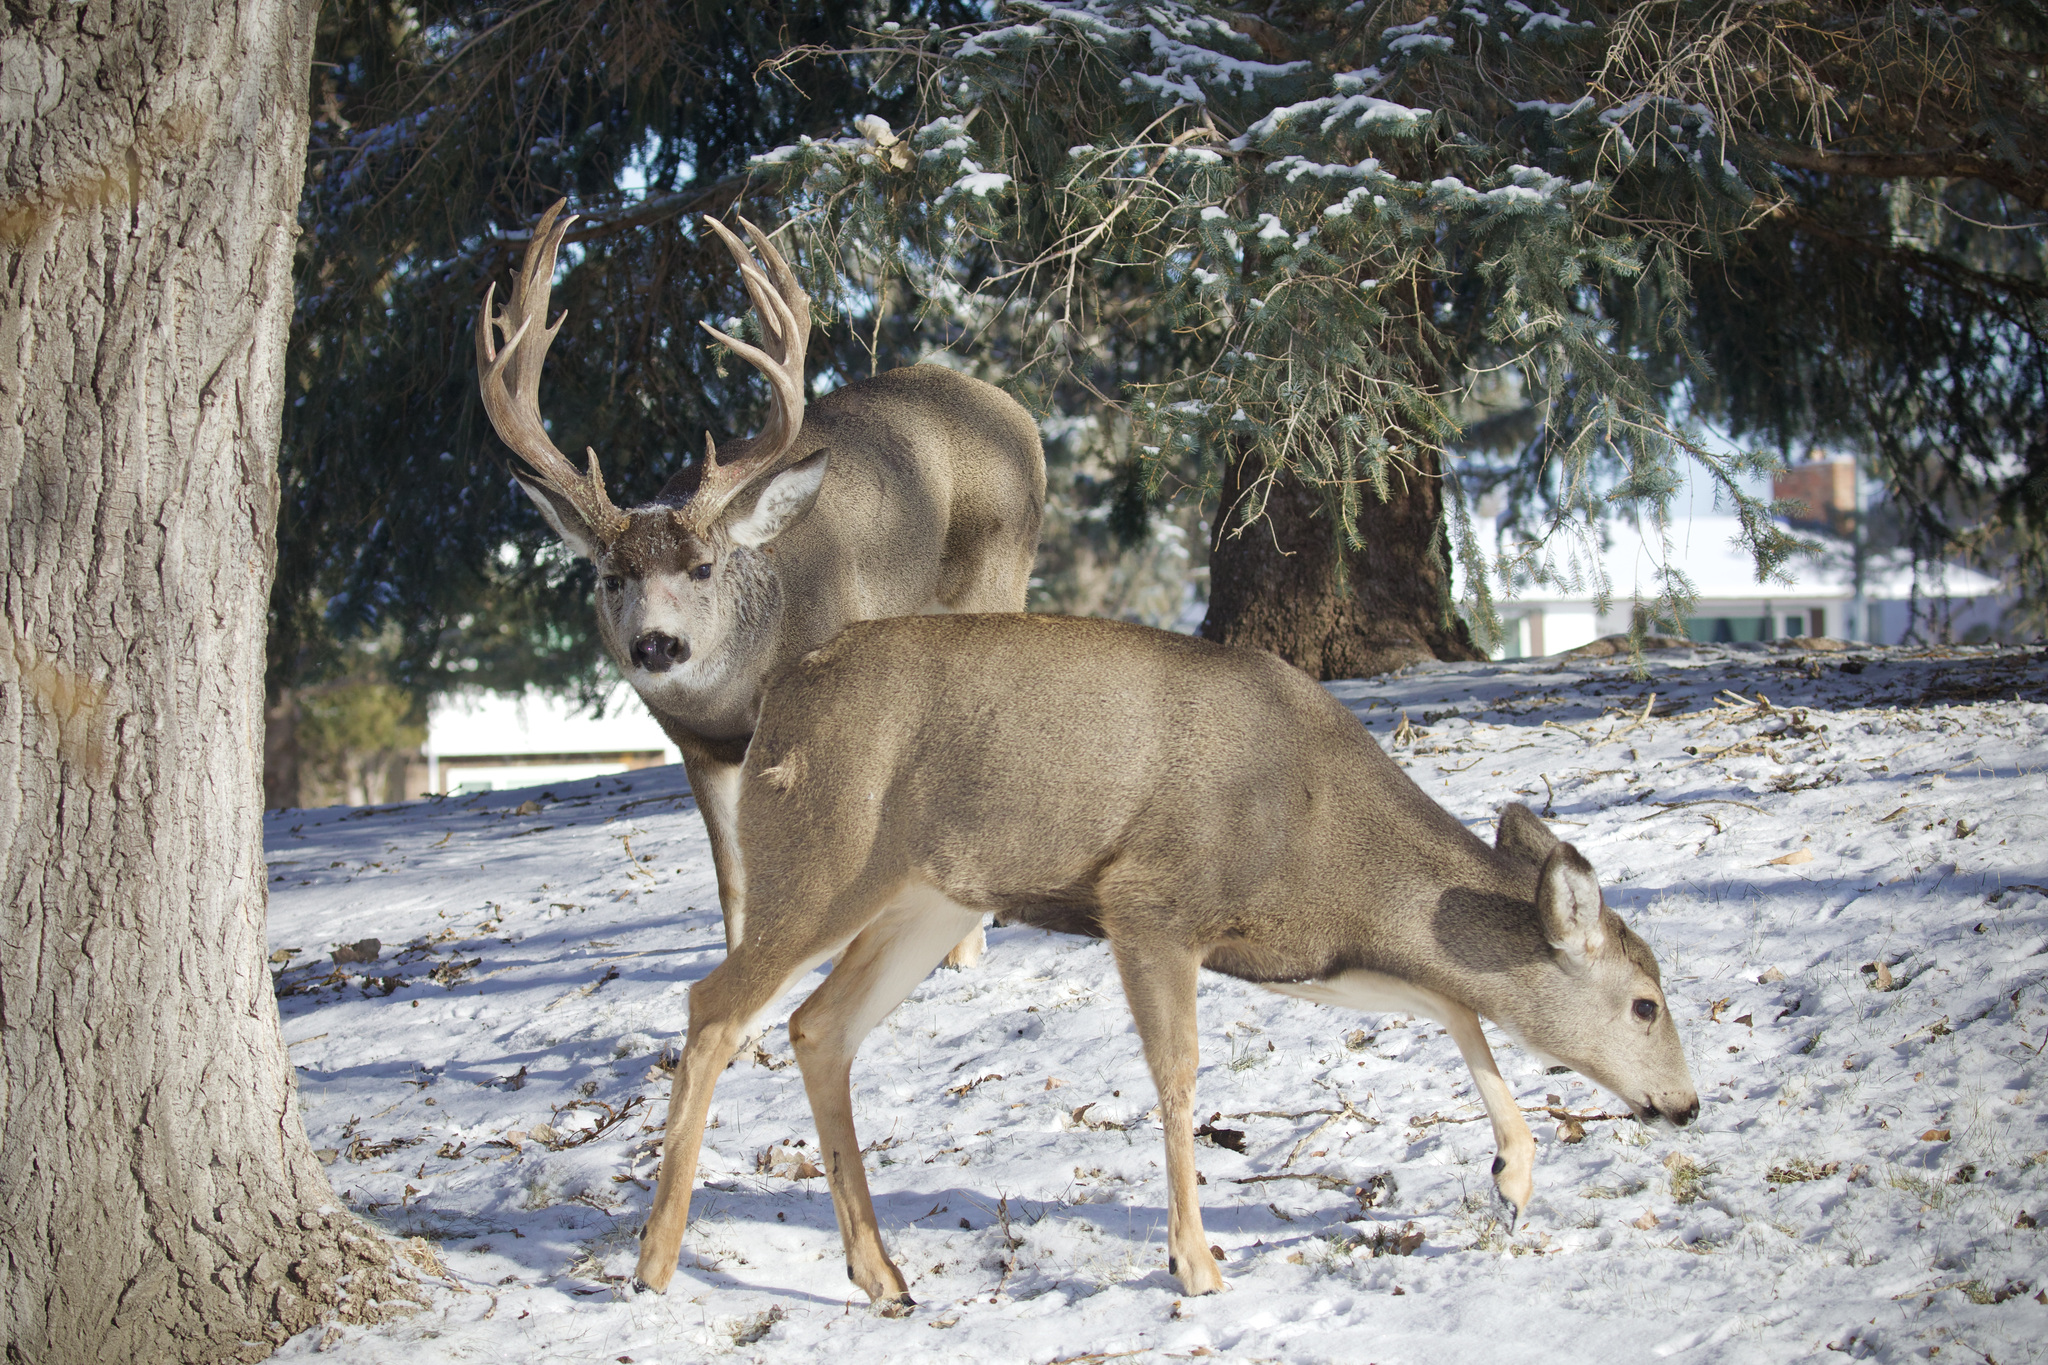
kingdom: Animalia
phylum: Chordata
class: Mammalia
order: Artiodactyla
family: Cervidae
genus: Odocoileus
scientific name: Odocoileus hemionus
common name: Mule deer
